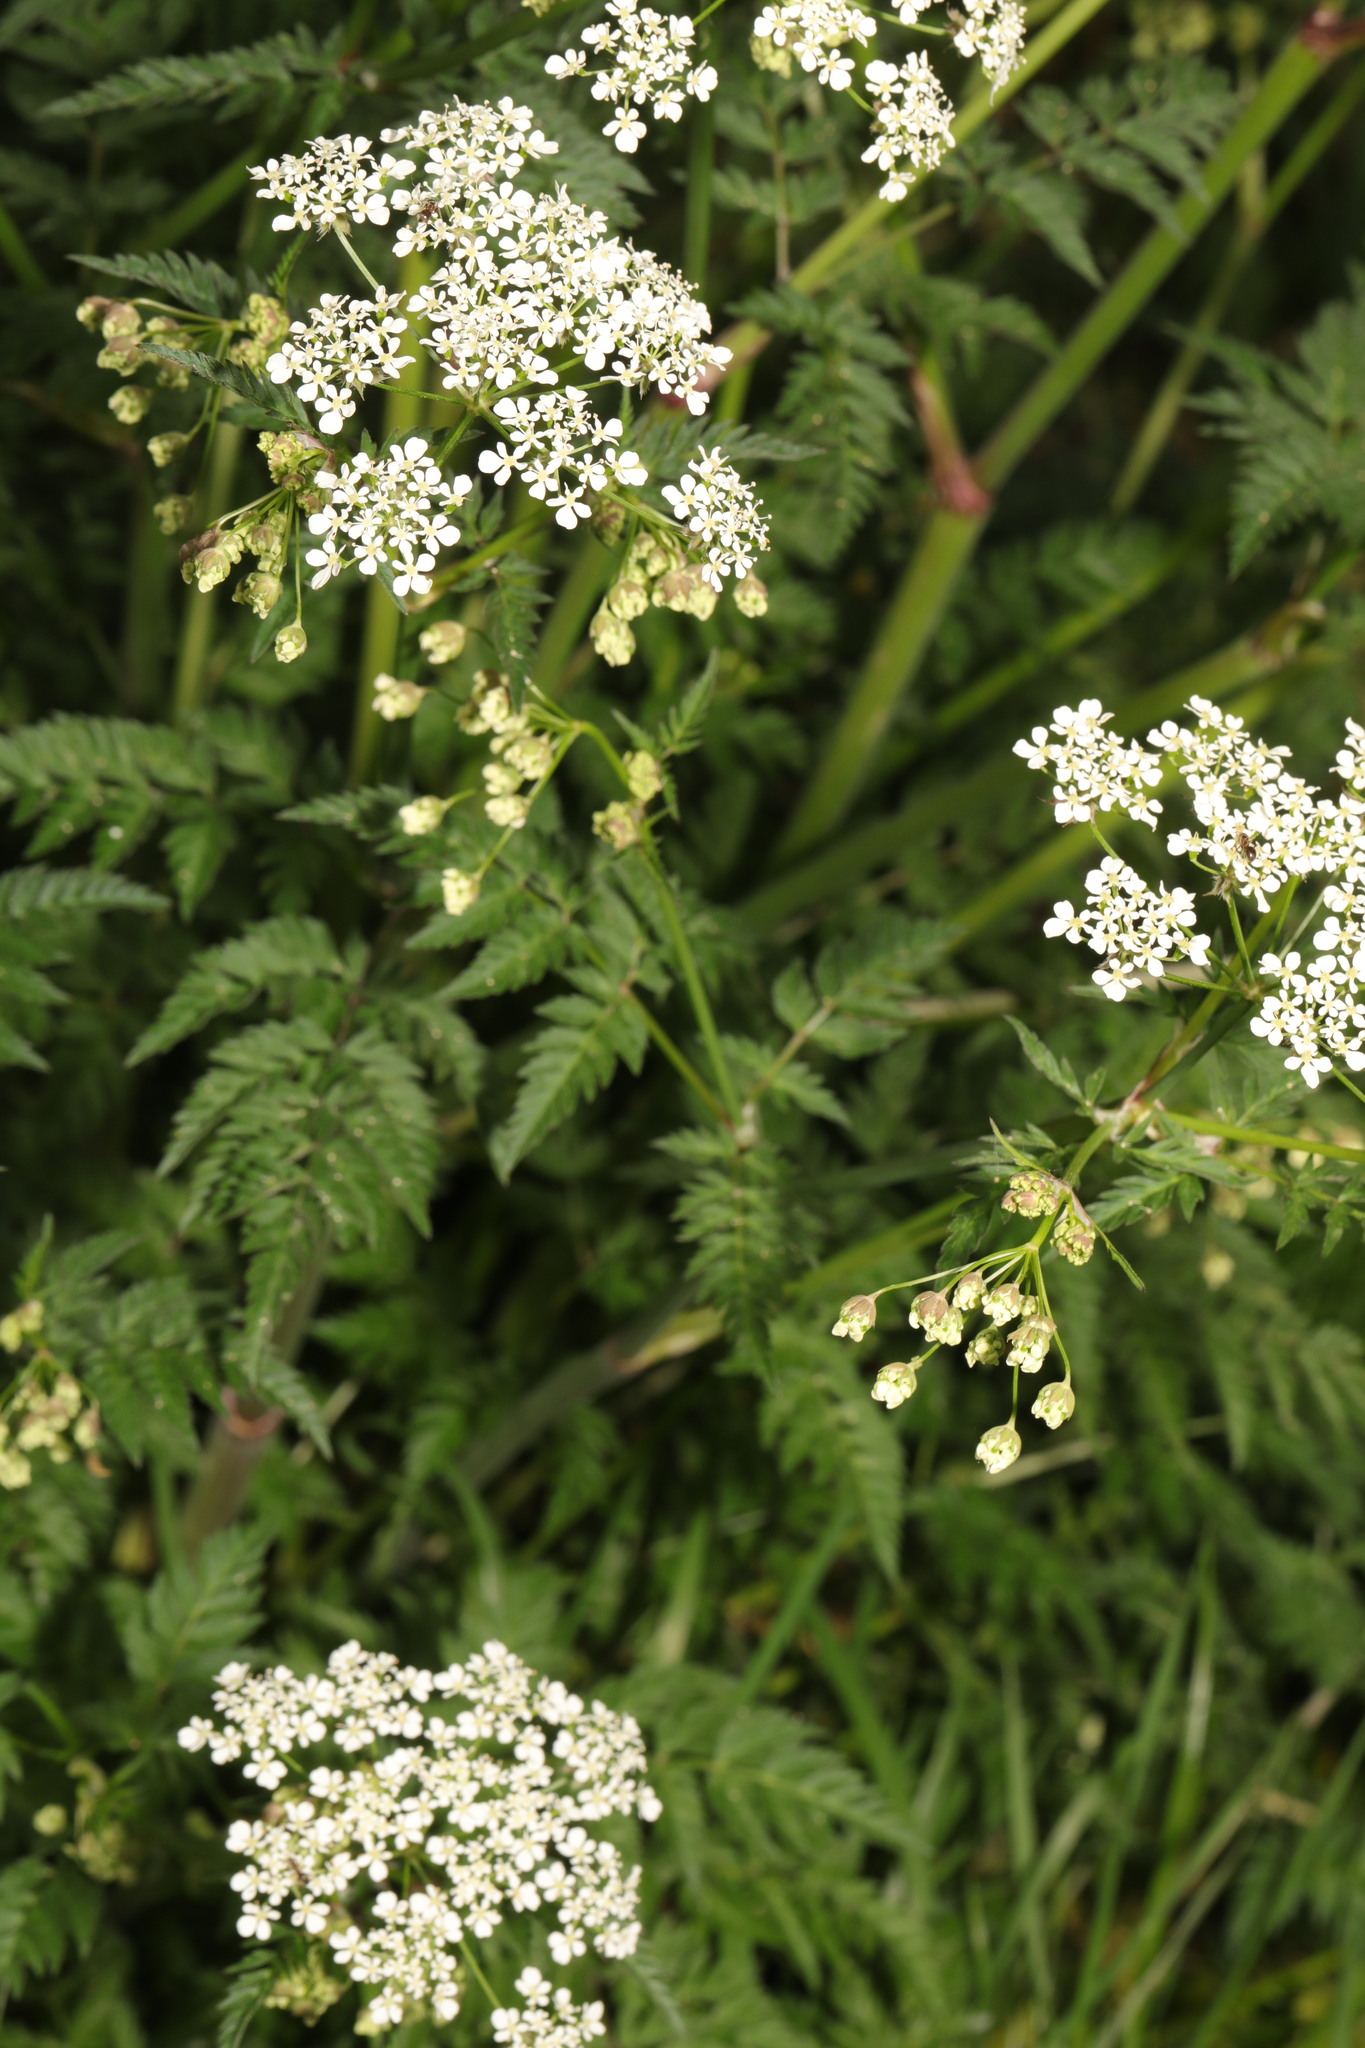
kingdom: Plantae
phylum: Tracheophyta
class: Magnoliopsida
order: Apiales
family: Apiaceae
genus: Anthriscus
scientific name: Anthriscus sylvestris
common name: Cow parsley
